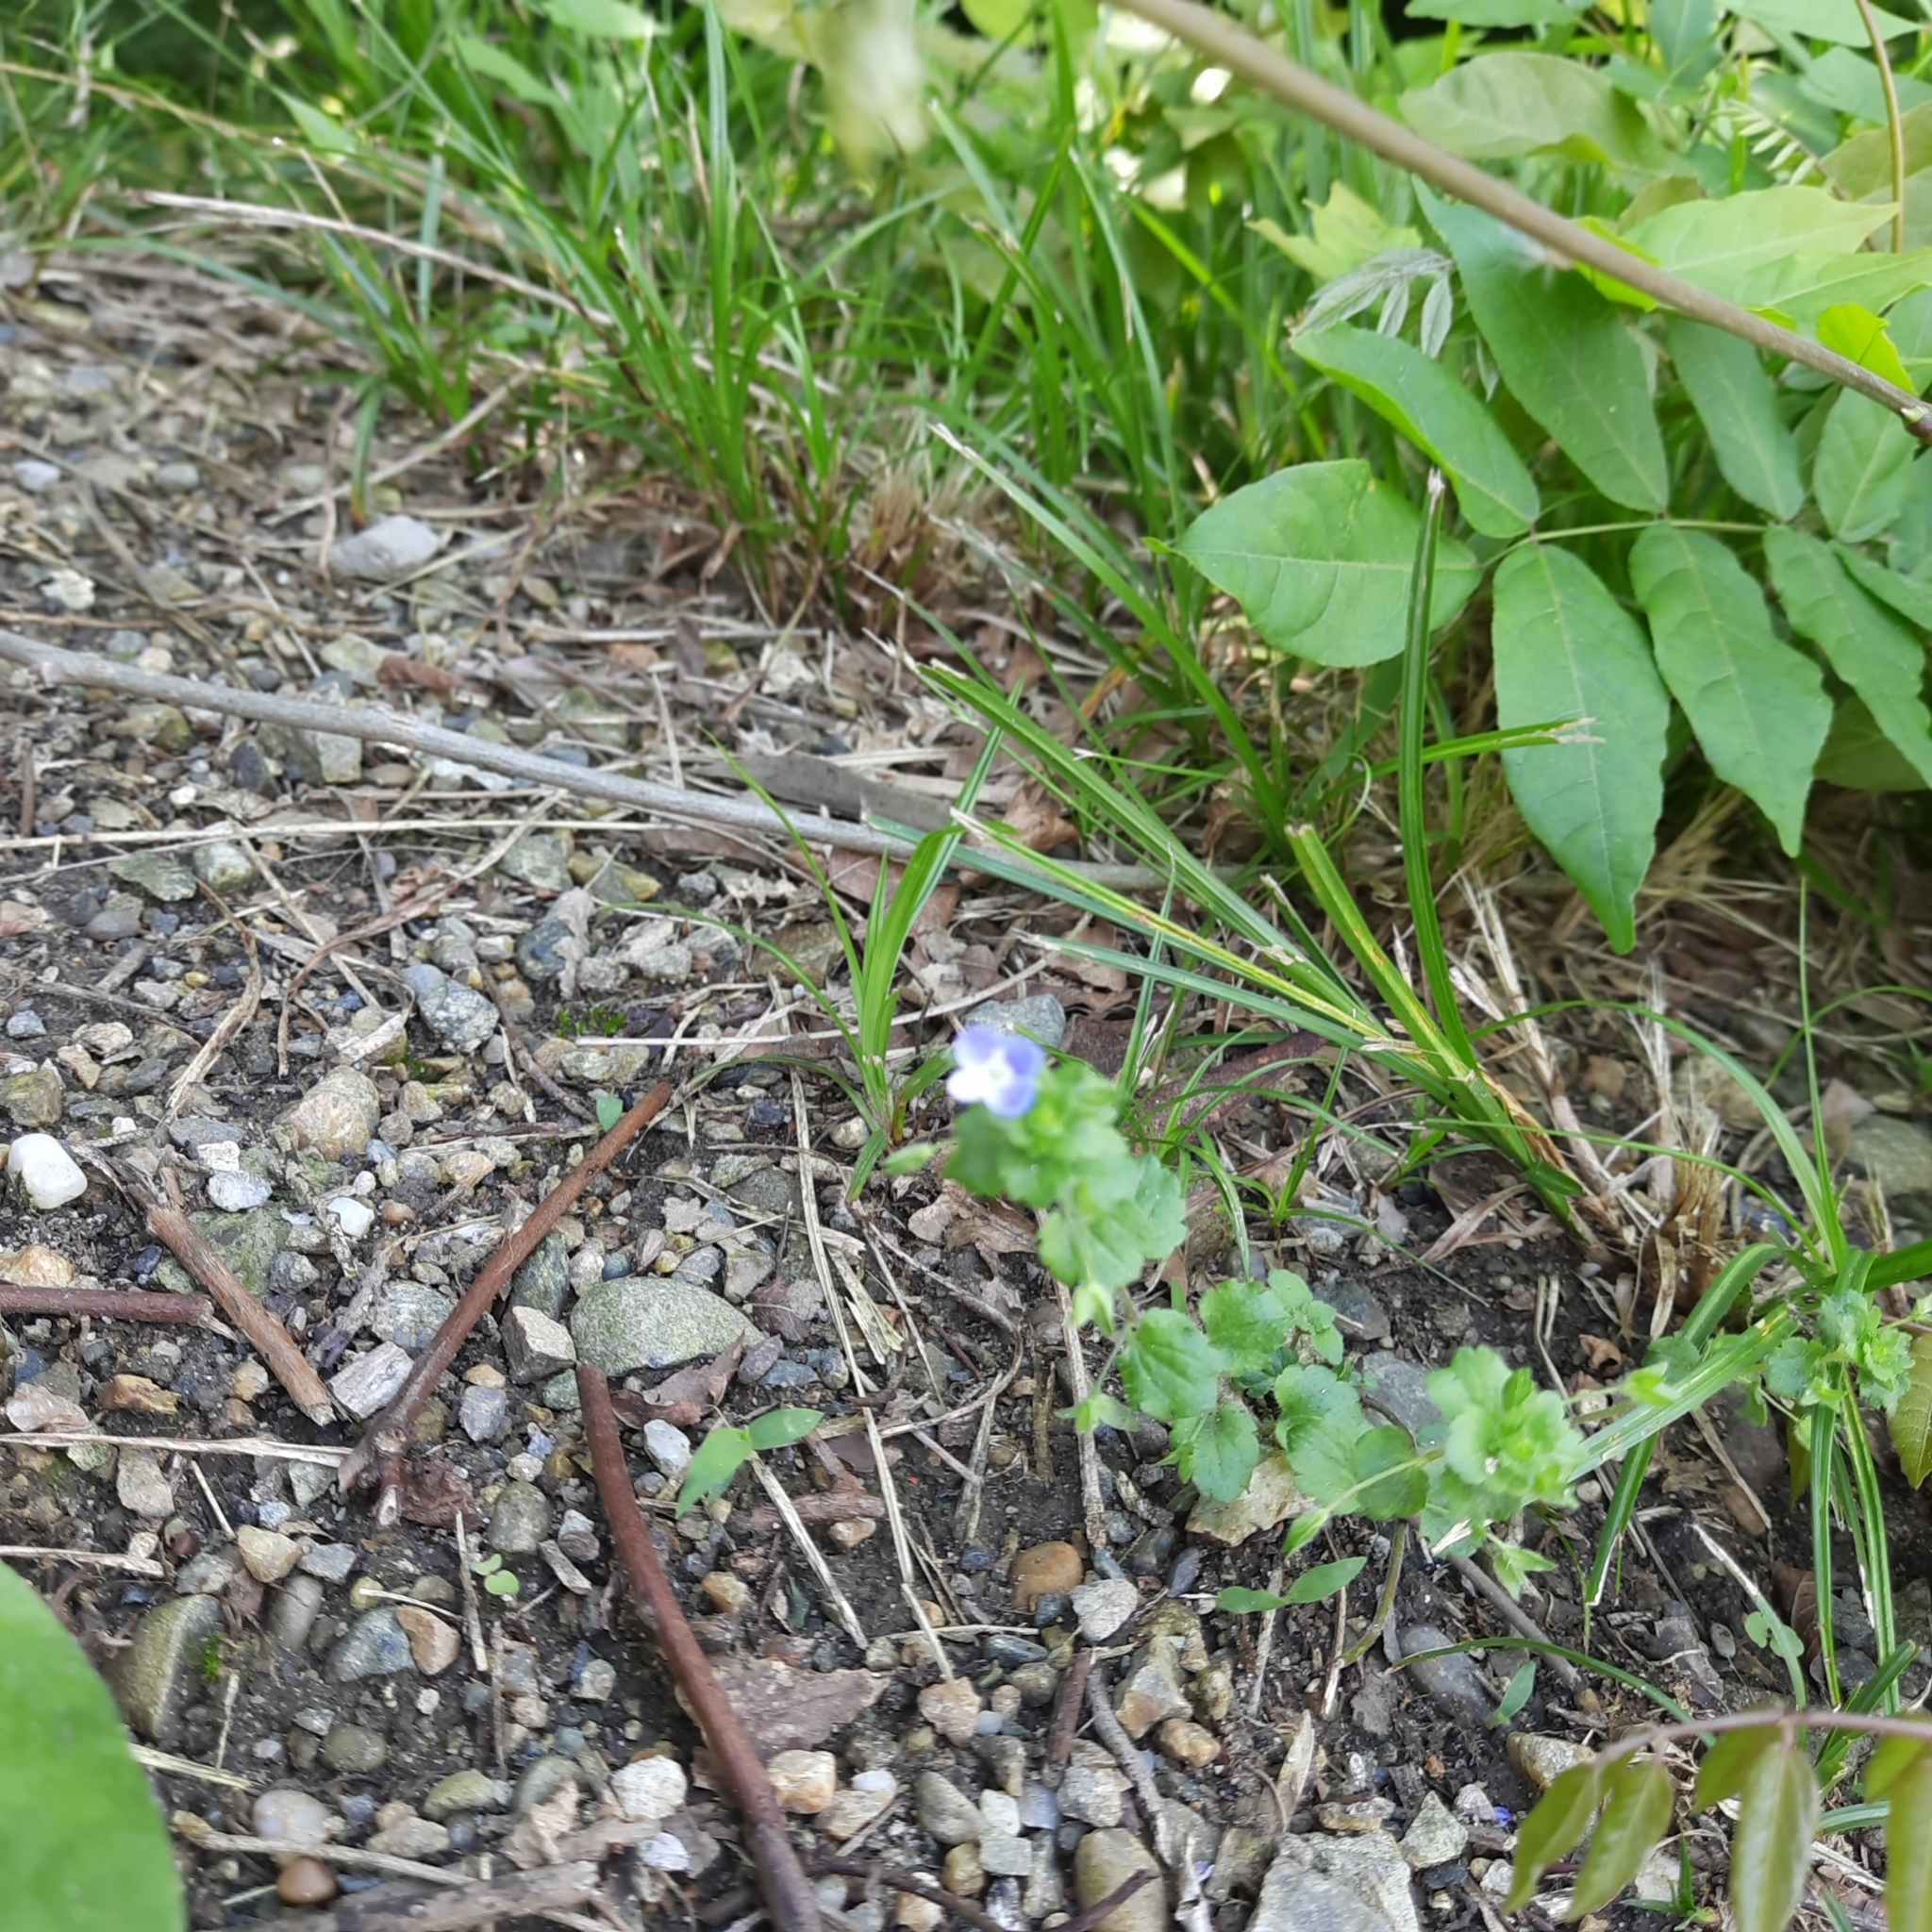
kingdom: Plantae
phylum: Tracheophyta
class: Magnoliopsida
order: Lamiales
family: Plantaginaceae
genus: Veronica
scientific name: Veronica persica
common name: Common field-speedwell
